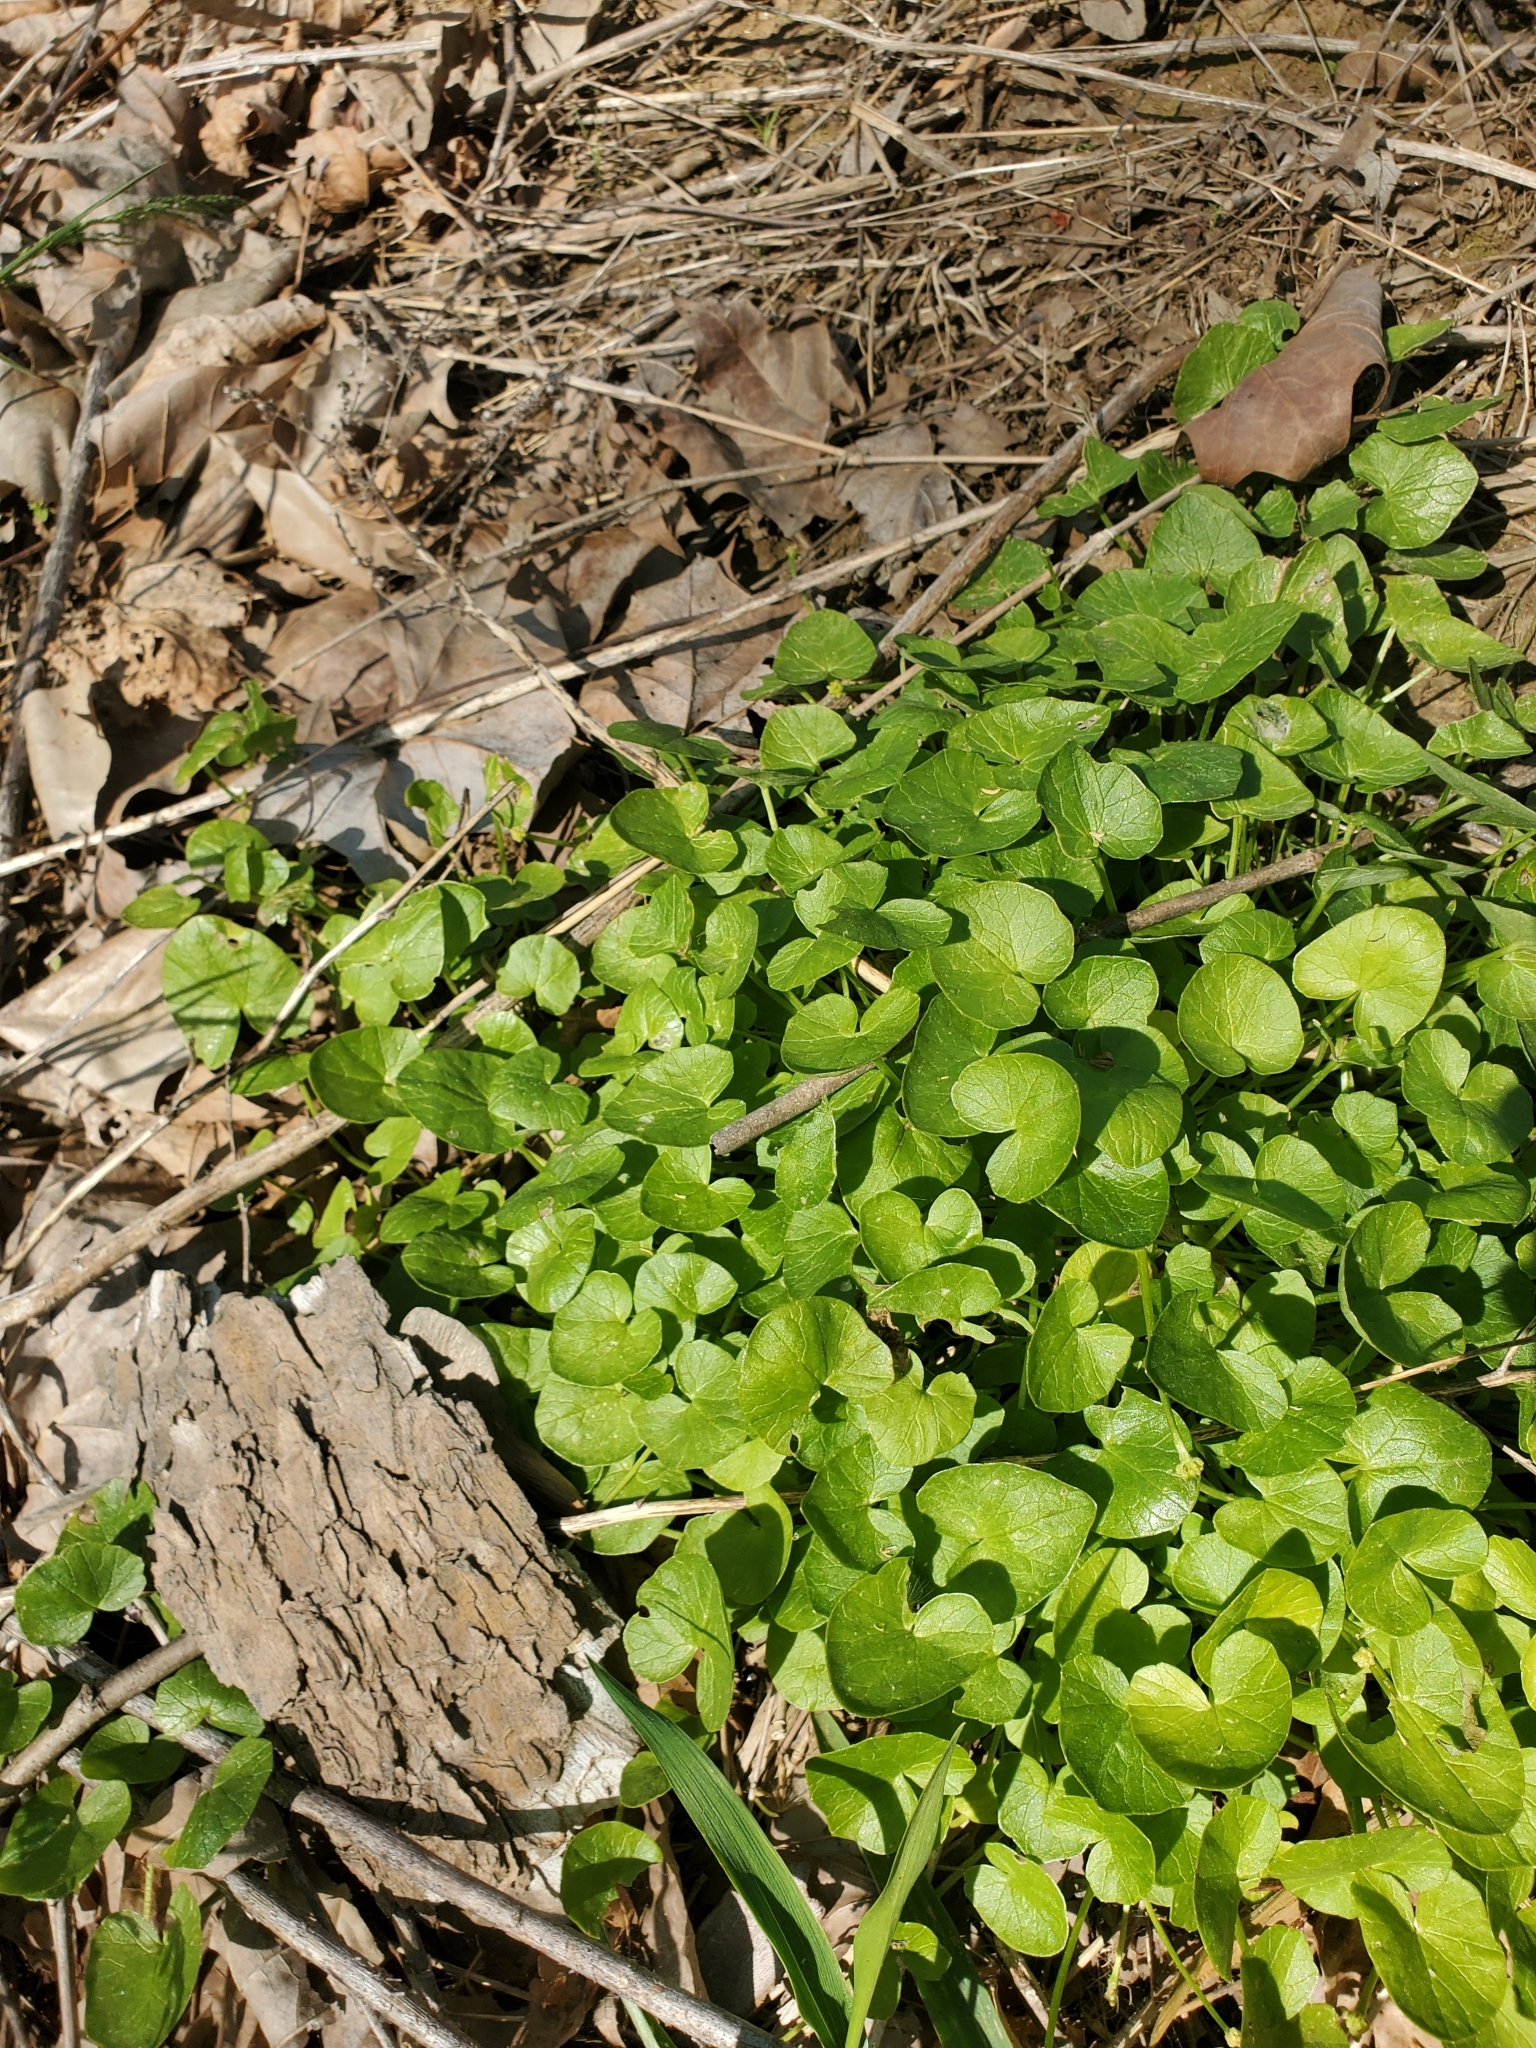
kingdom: Plantae
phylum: Tracheophyta
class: Magnoliopsida
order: Ranunculales
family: Ranunculaceae
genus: Ficaria
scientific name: Ficaria verna
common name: Lesser celandine
